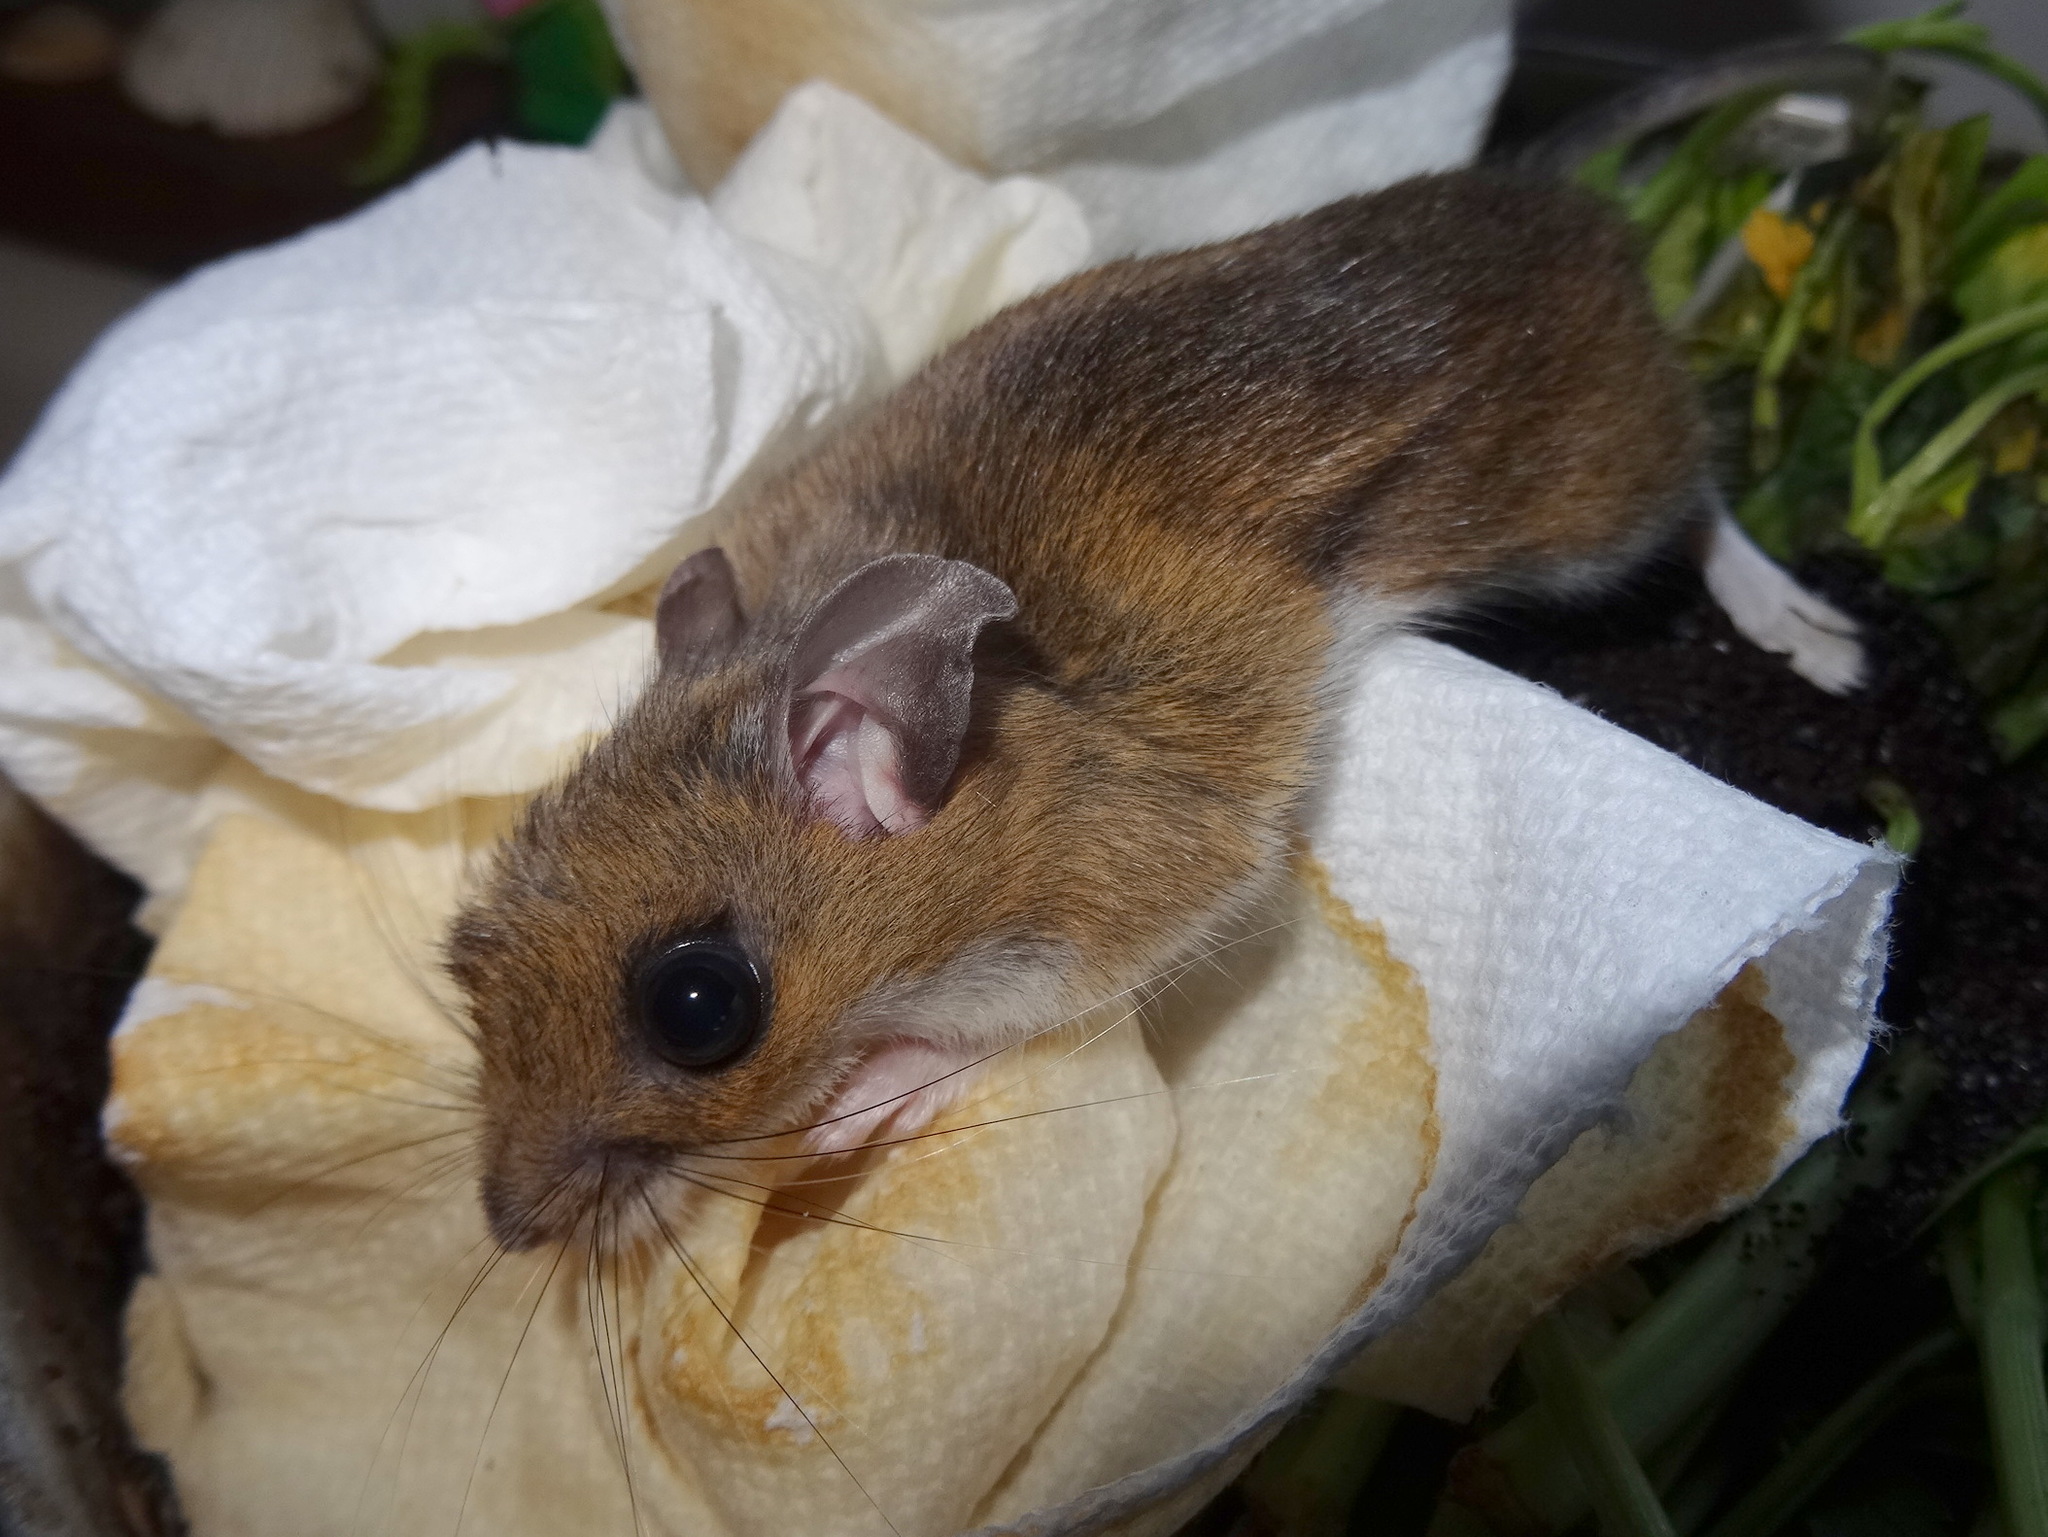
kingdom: Animalia
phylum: Chordata
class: Mammalia
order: Rodentia
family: Cricetidae
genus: Peromyscus
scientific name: Peromyscus maniculatus
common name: Deer mouse
